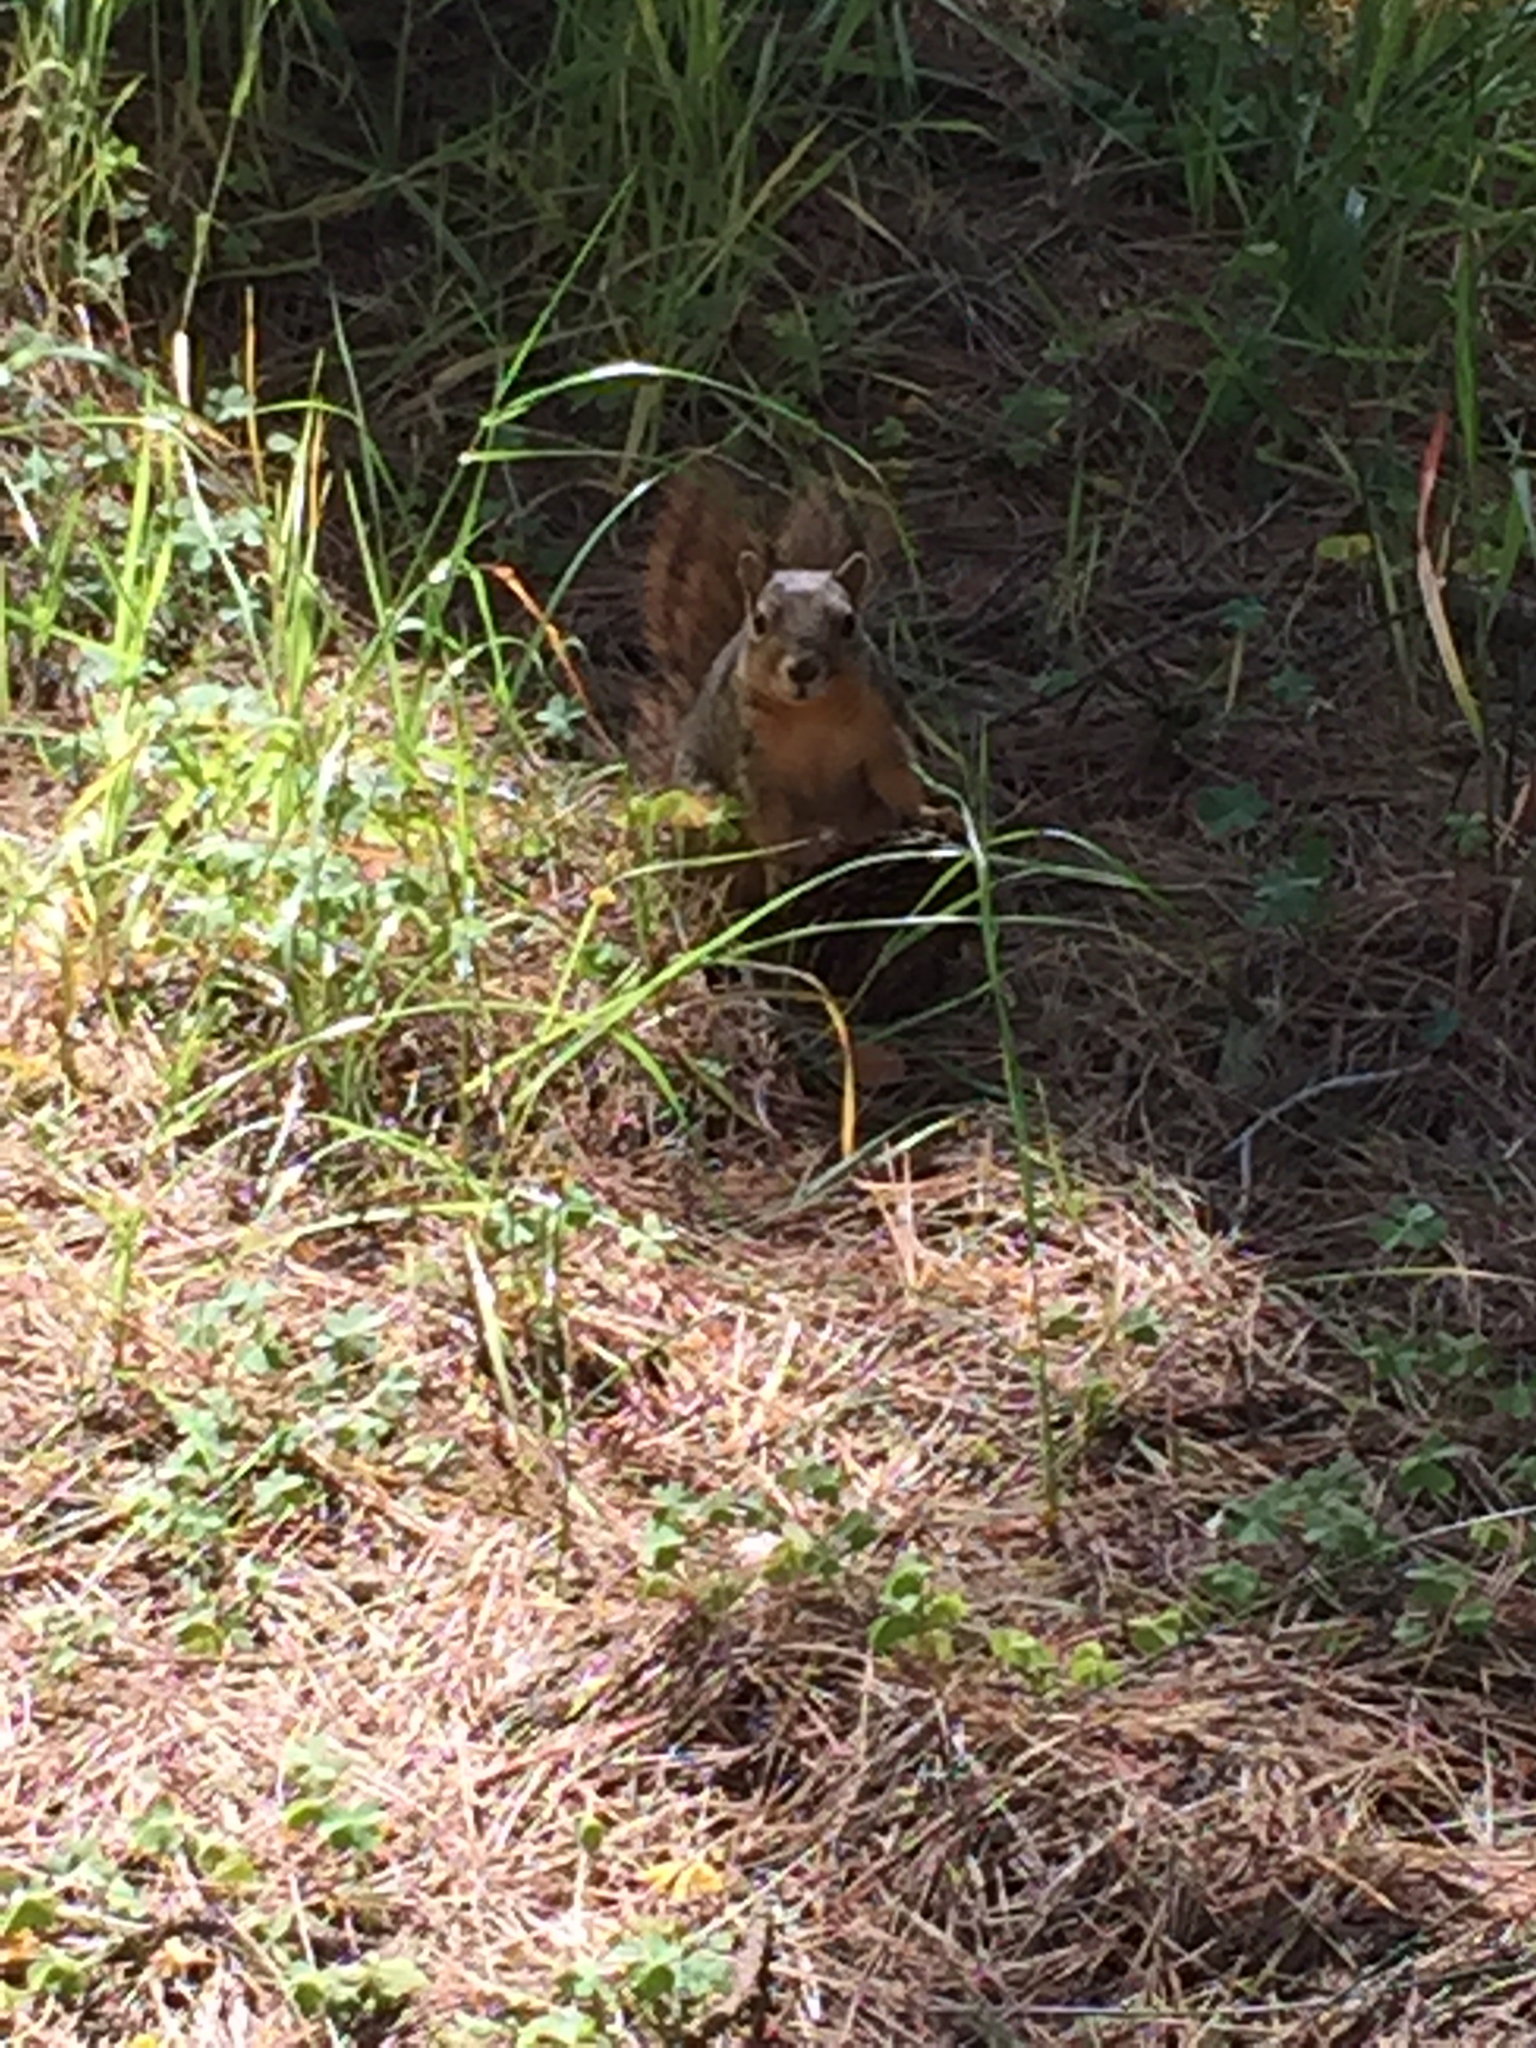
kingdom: Animalia
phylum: Chordata
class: Mammalia
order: Rodentia
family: Sciuridae
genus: Sciurus
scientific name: Sciurus niger
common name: Fox squirrel
